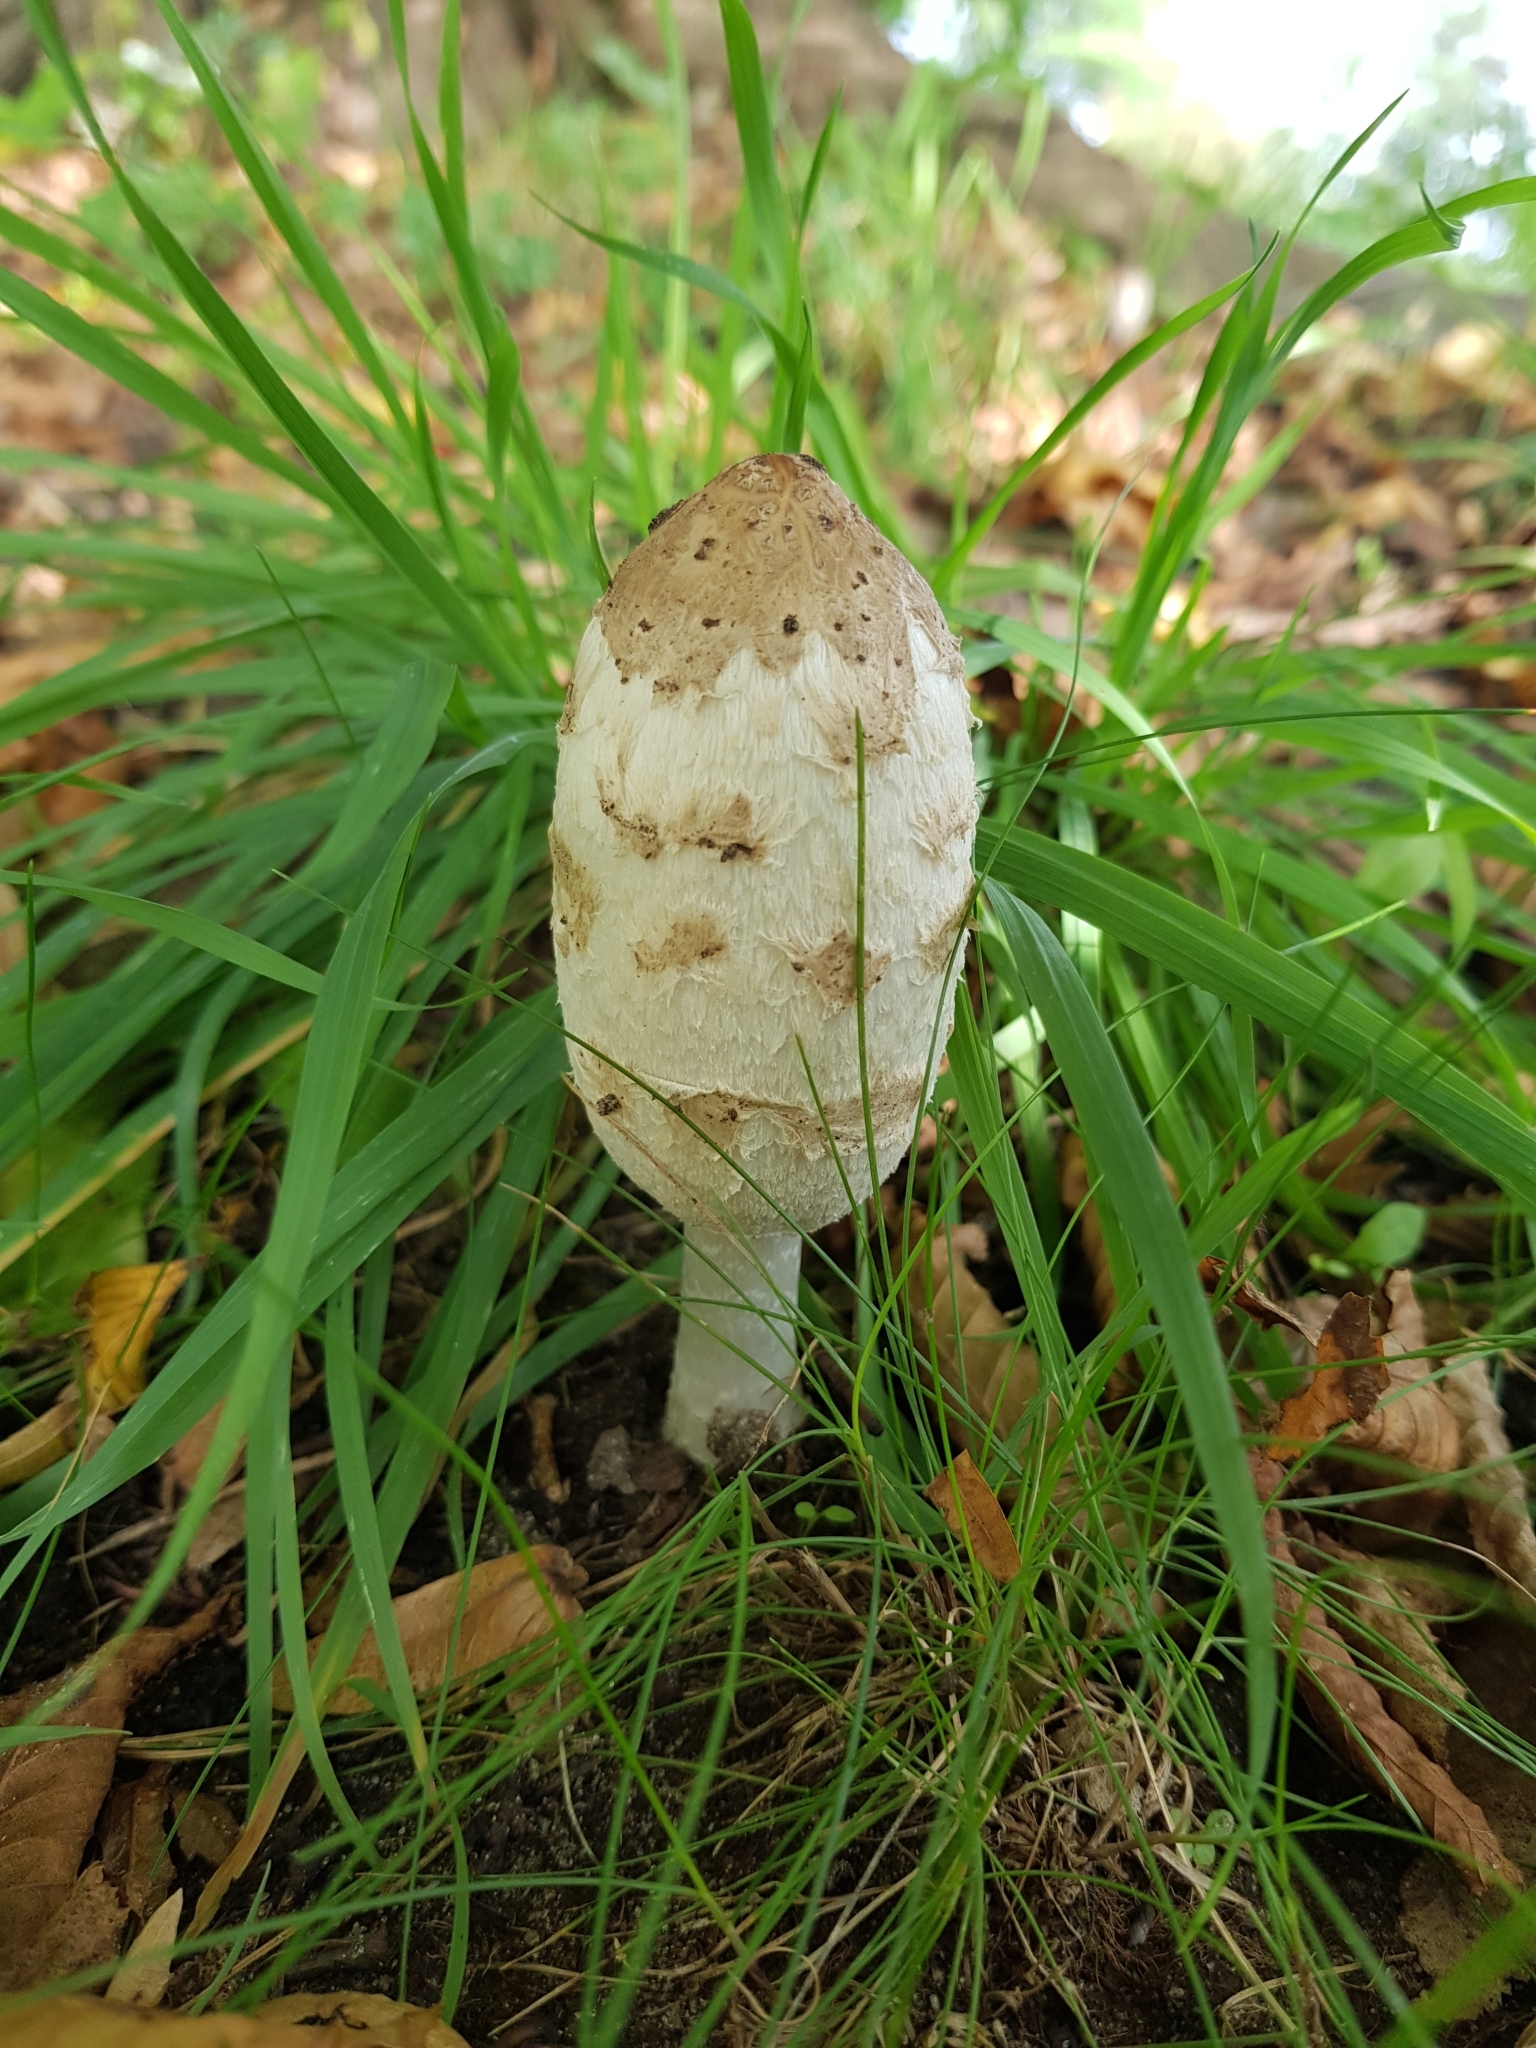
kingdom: Fungi
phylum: Basidiomycota
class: Agaricomycetes
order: Agaricales
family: Agaricaceae
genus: Coprinus
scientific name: Coprinus comatus
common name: Lawyer's wig
